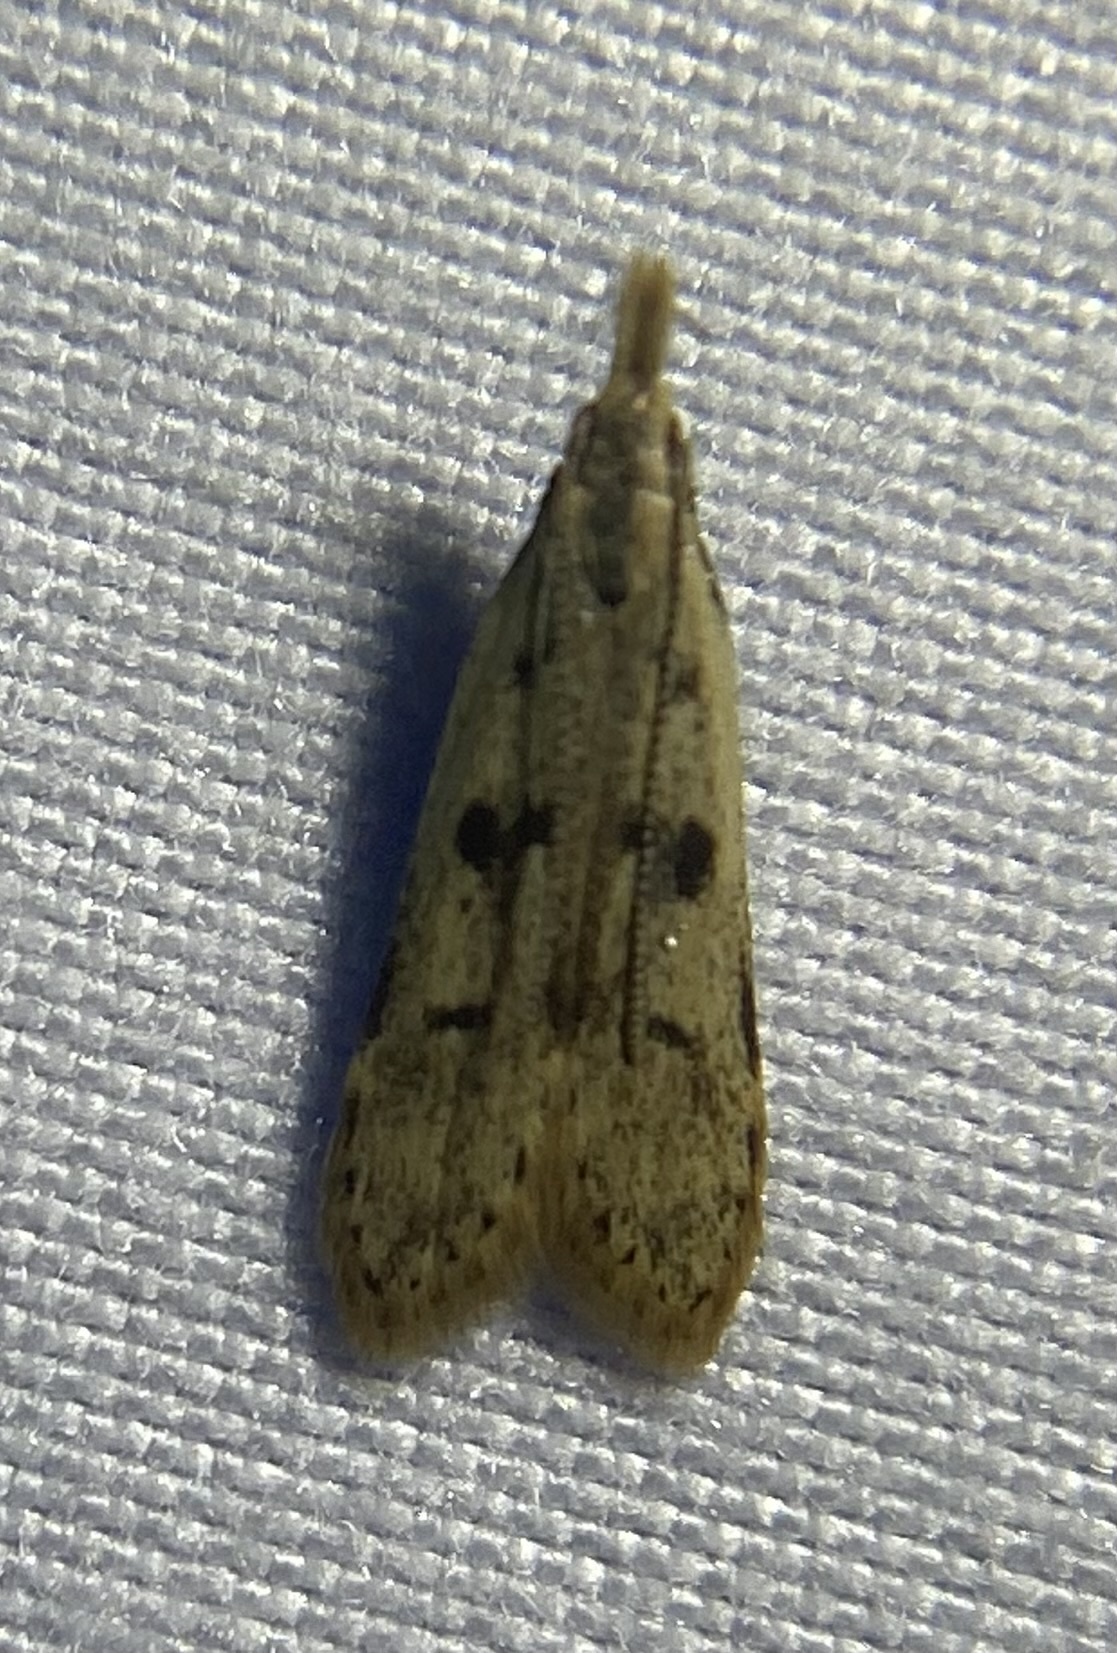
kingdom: Animalia
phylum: Arthropoda
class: Insecta
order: Lepidoptera
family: Gelechiidae
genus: Dichomeris
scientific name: Dichomeris punctipennella
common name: Many-spotted dichomeris moth
